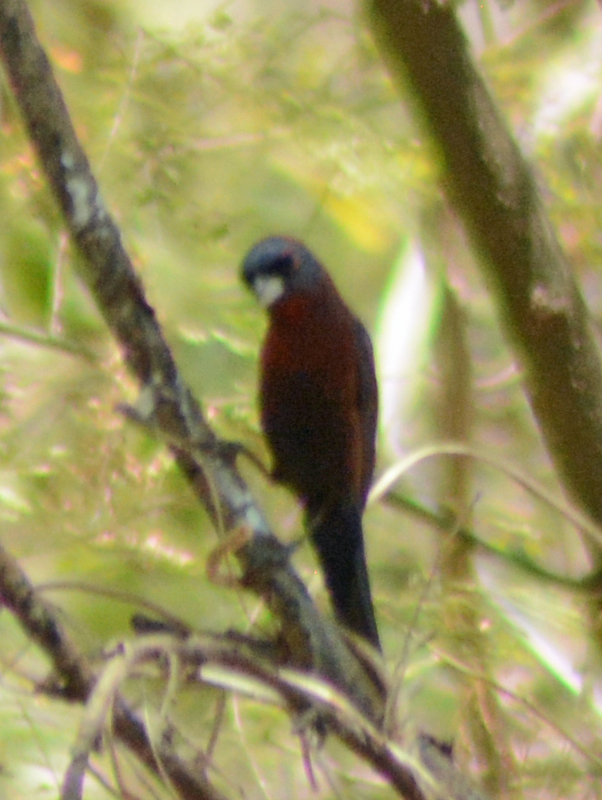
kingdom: Animalia
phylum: Chordata
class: Aves
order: Passeriformes
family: Cardinalidae
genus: Passerina
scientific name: Passerina versicolor
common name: Varied bunting
